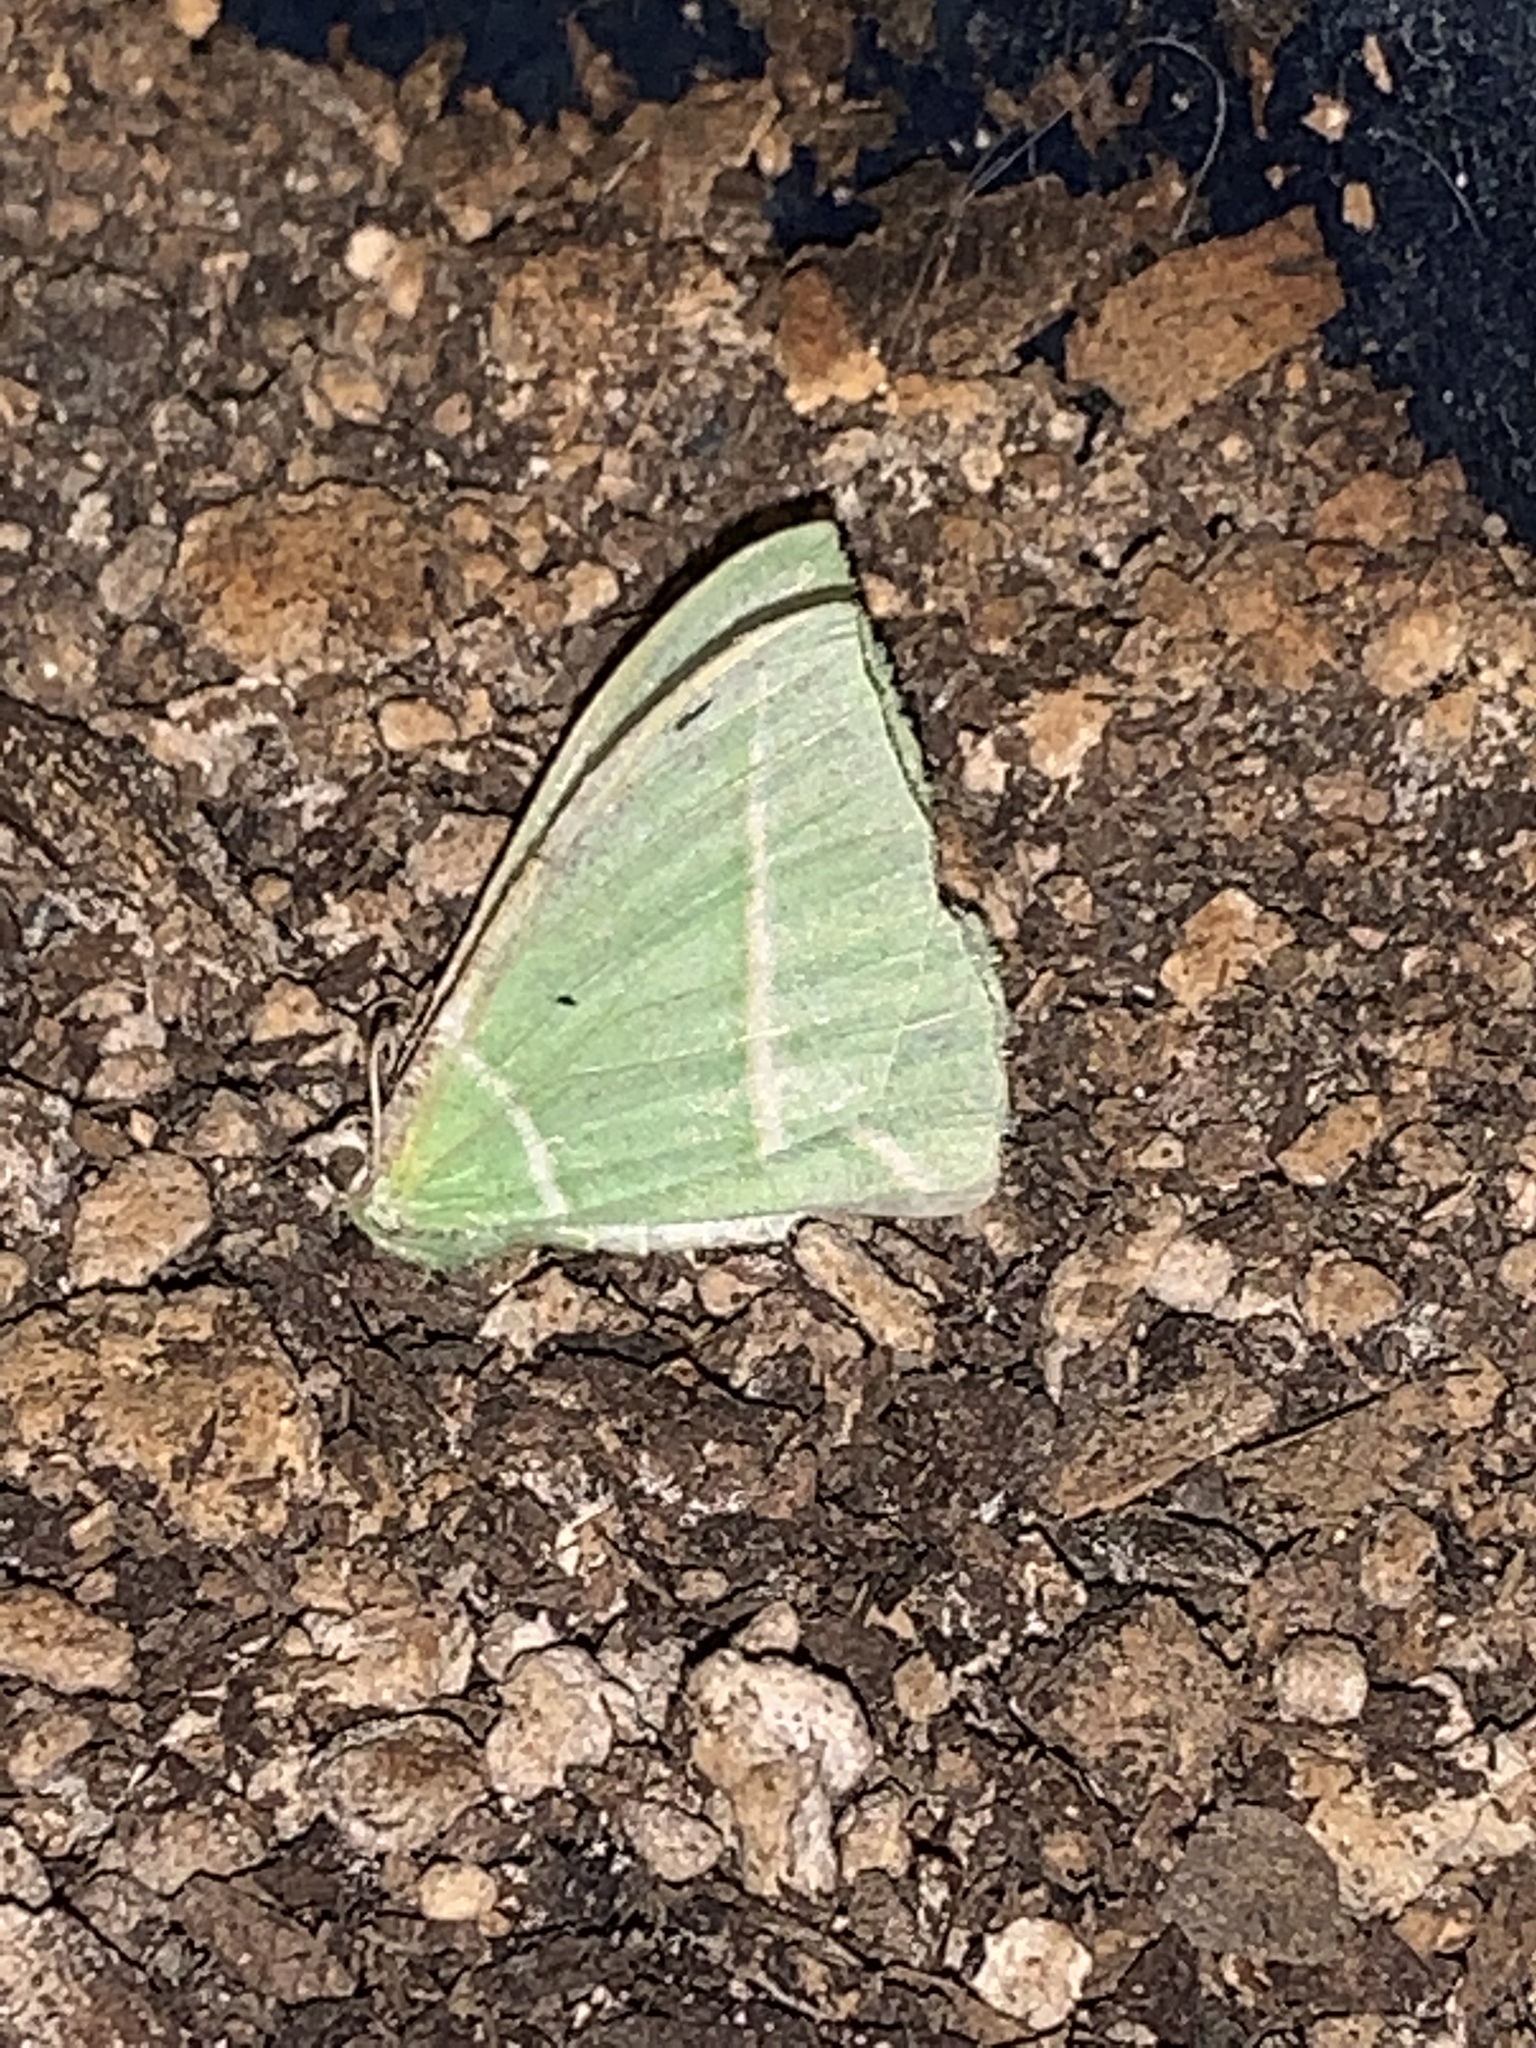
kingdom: Animalia
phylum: Arthropoda
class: Insecta
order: Lepidoptera
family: Geometridae
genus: Dichorda
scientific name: Dichorda illustraria
